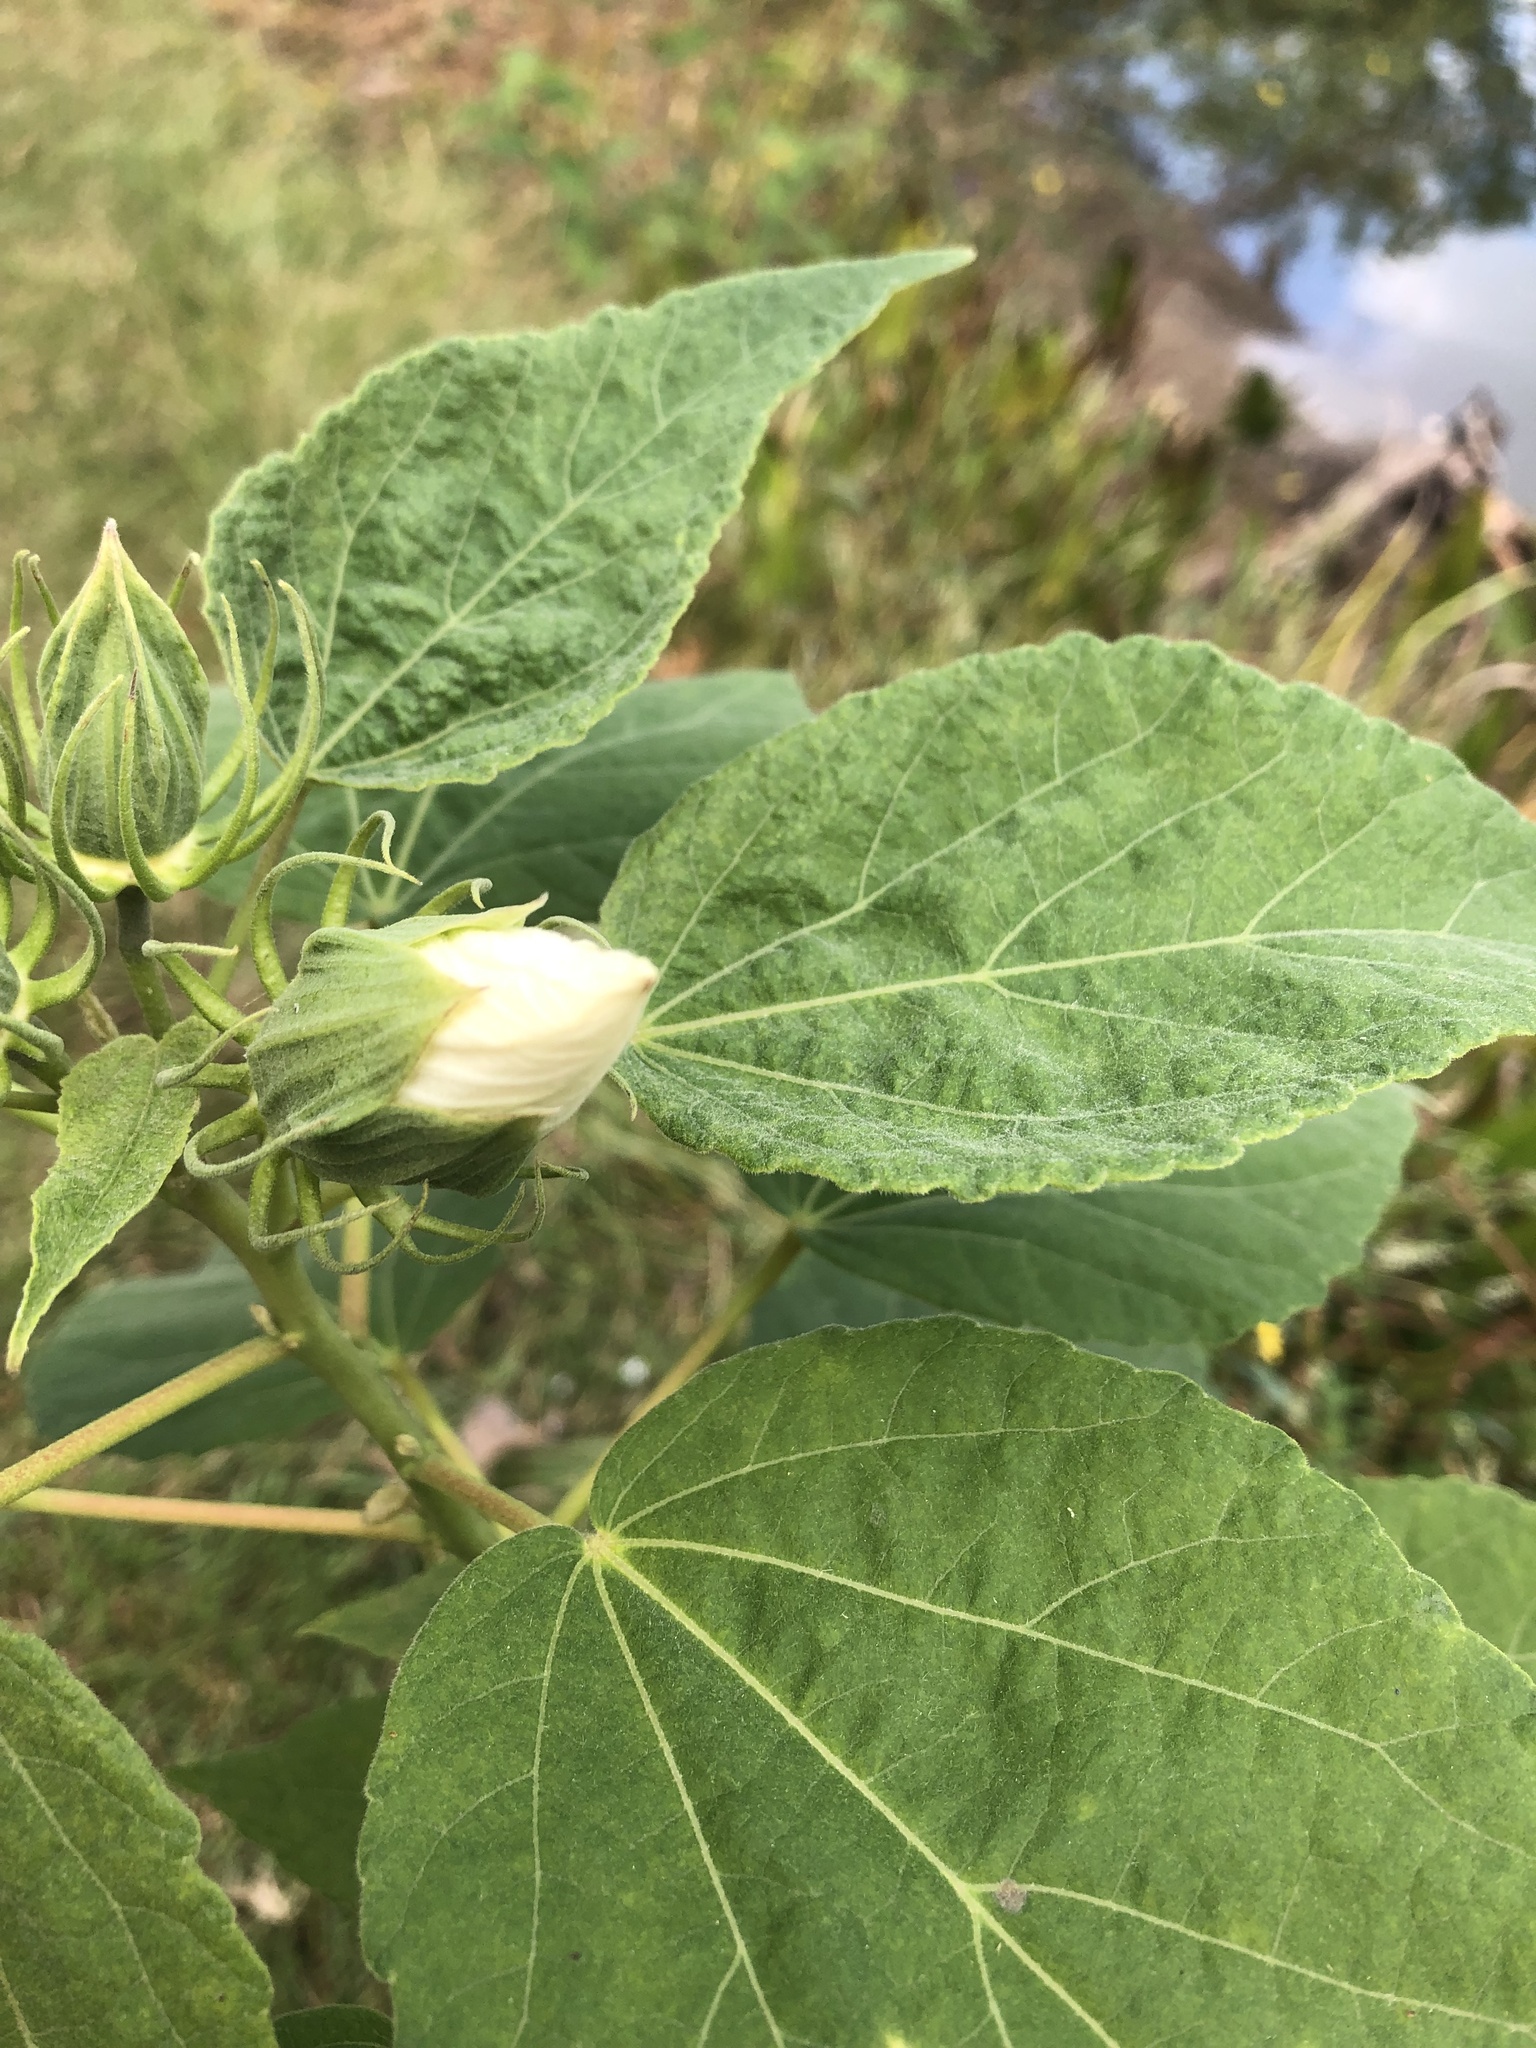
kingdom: Plantae
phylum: Tracheophyta
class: Magnoliopsida
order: Malvales
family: Malvaceae
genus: Hibiscus
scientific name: Hibiscus moscheutos
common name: Common rose-mallow
